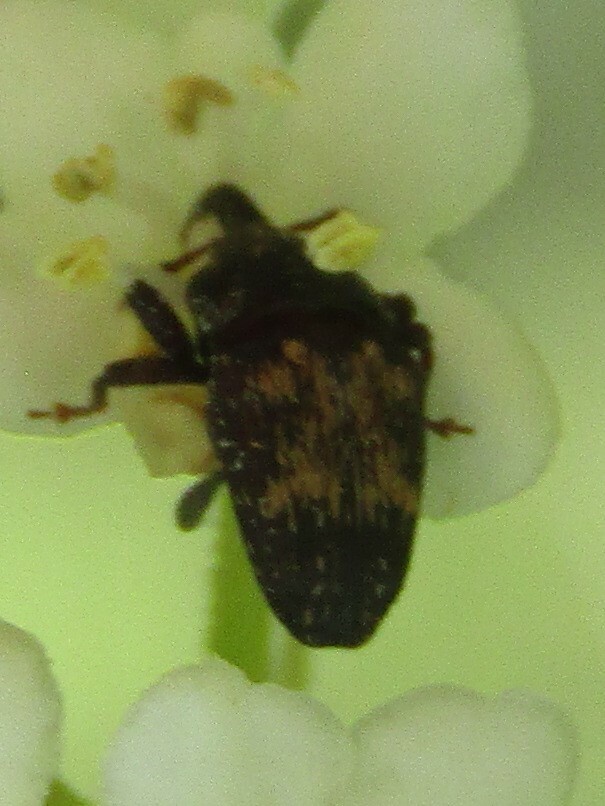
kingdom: Animalia
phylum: Arthropoda
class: Insecta
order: Coleoptera
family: Curculionidae
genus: Glyptobaris
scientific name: Glyptobaris lecontei
